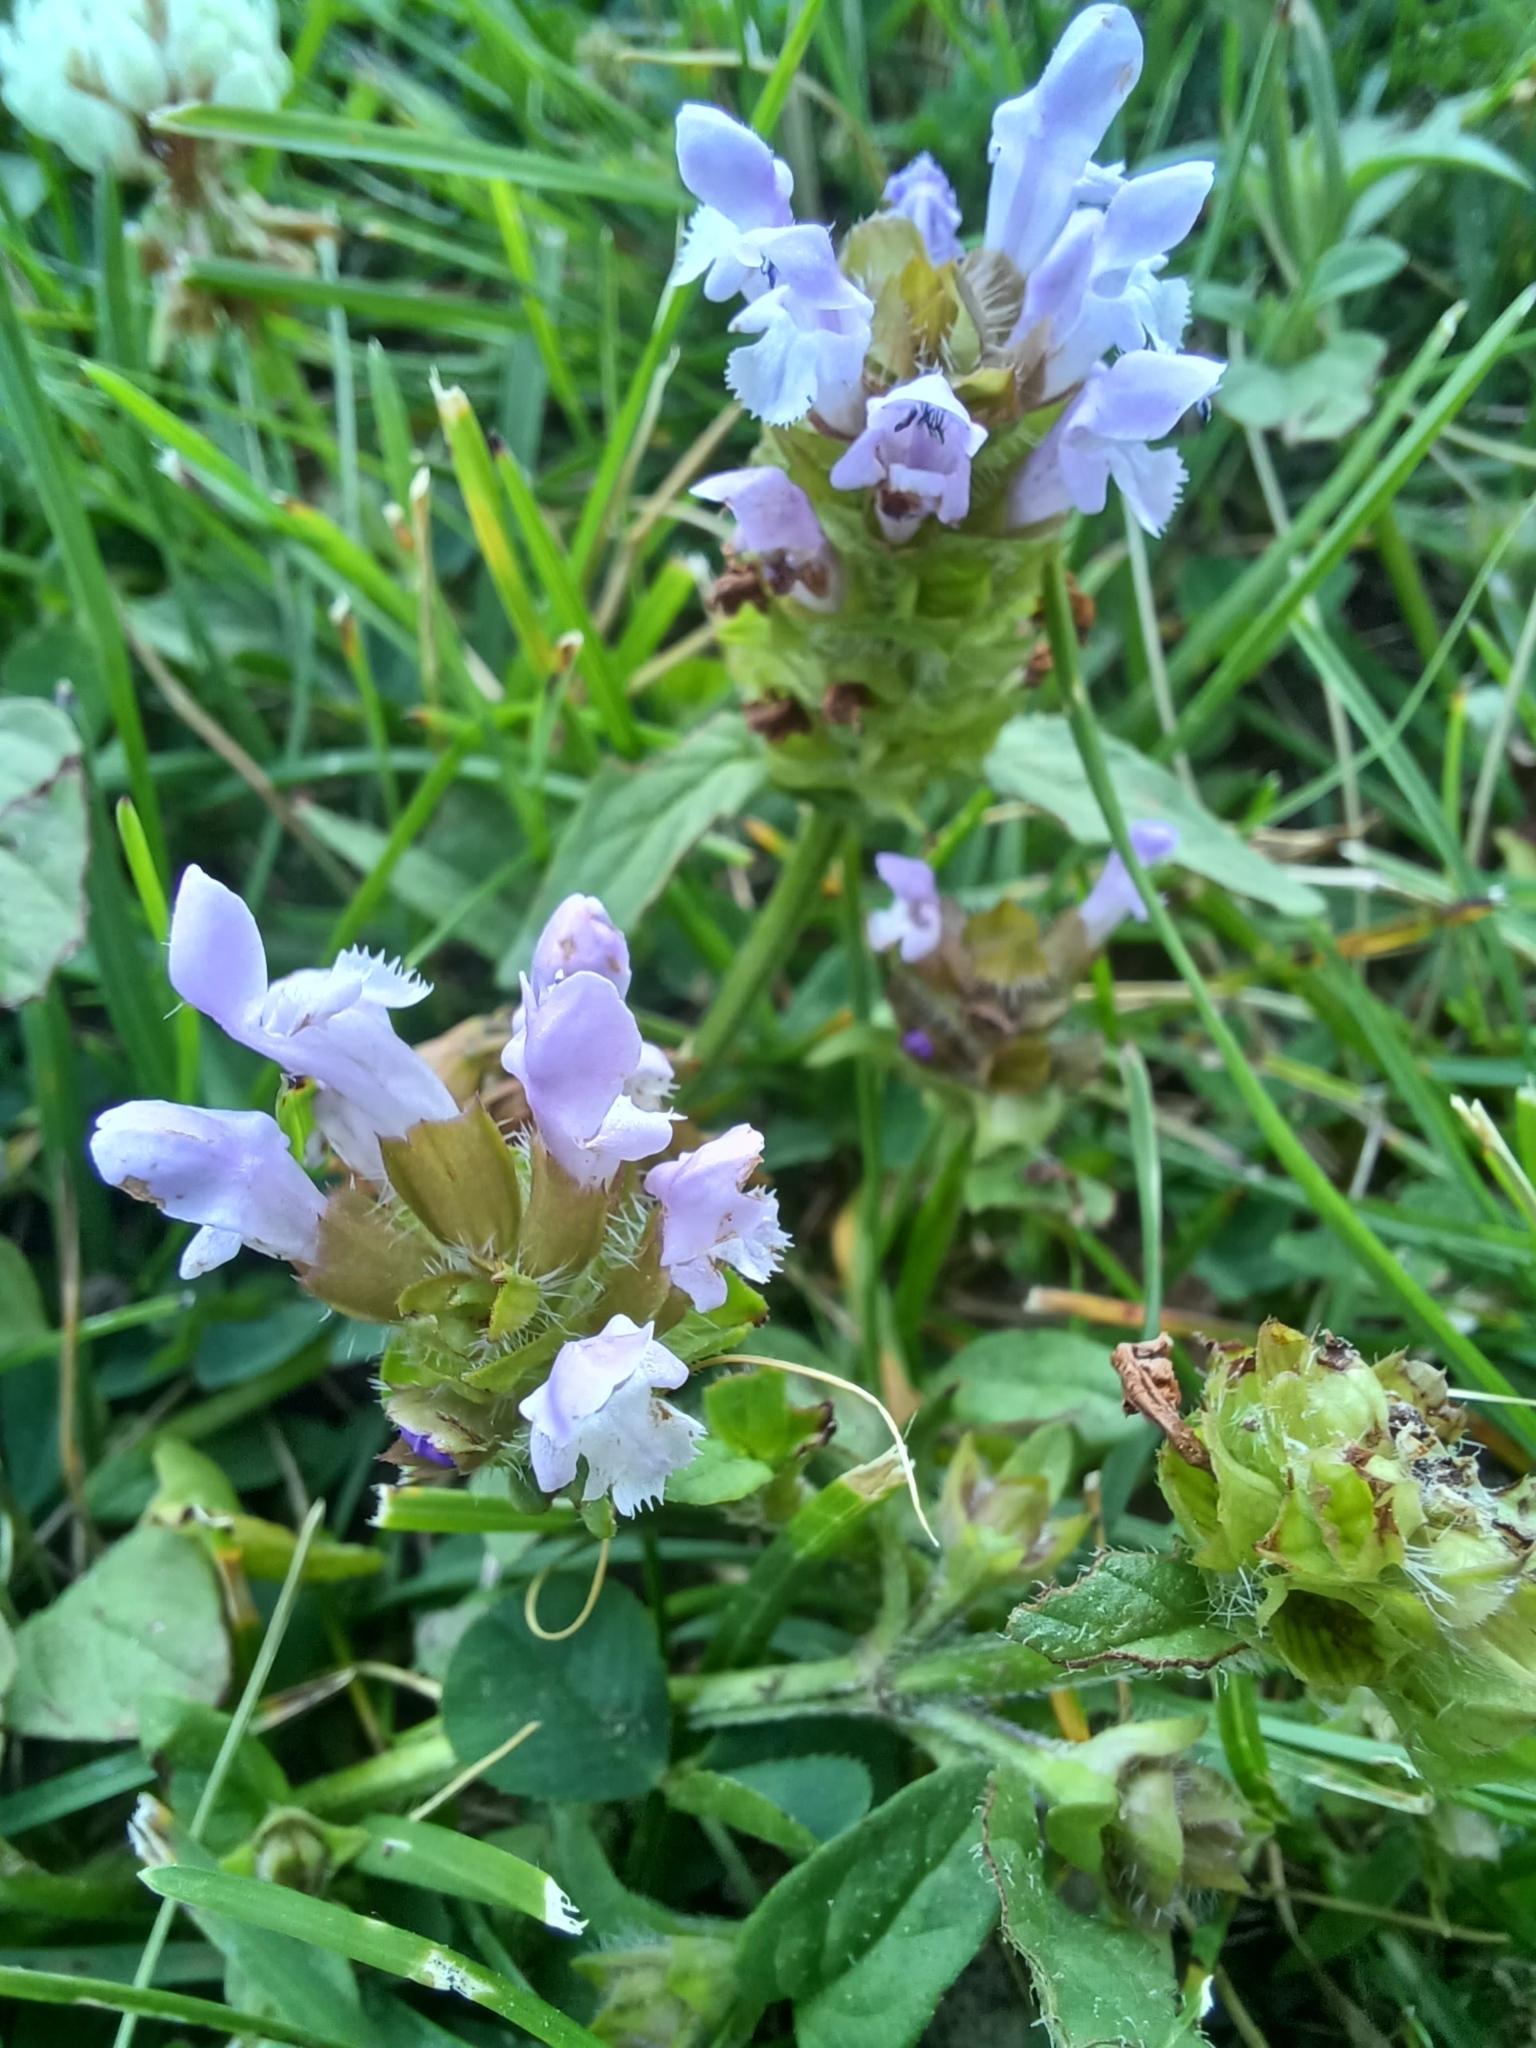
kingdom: Plantae
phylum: Tracheophyta
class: Magnoliopsida
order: Lamiales
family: Lamiaceae
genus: Prunella
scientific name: Prunella vulgaris
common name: Heal-all
